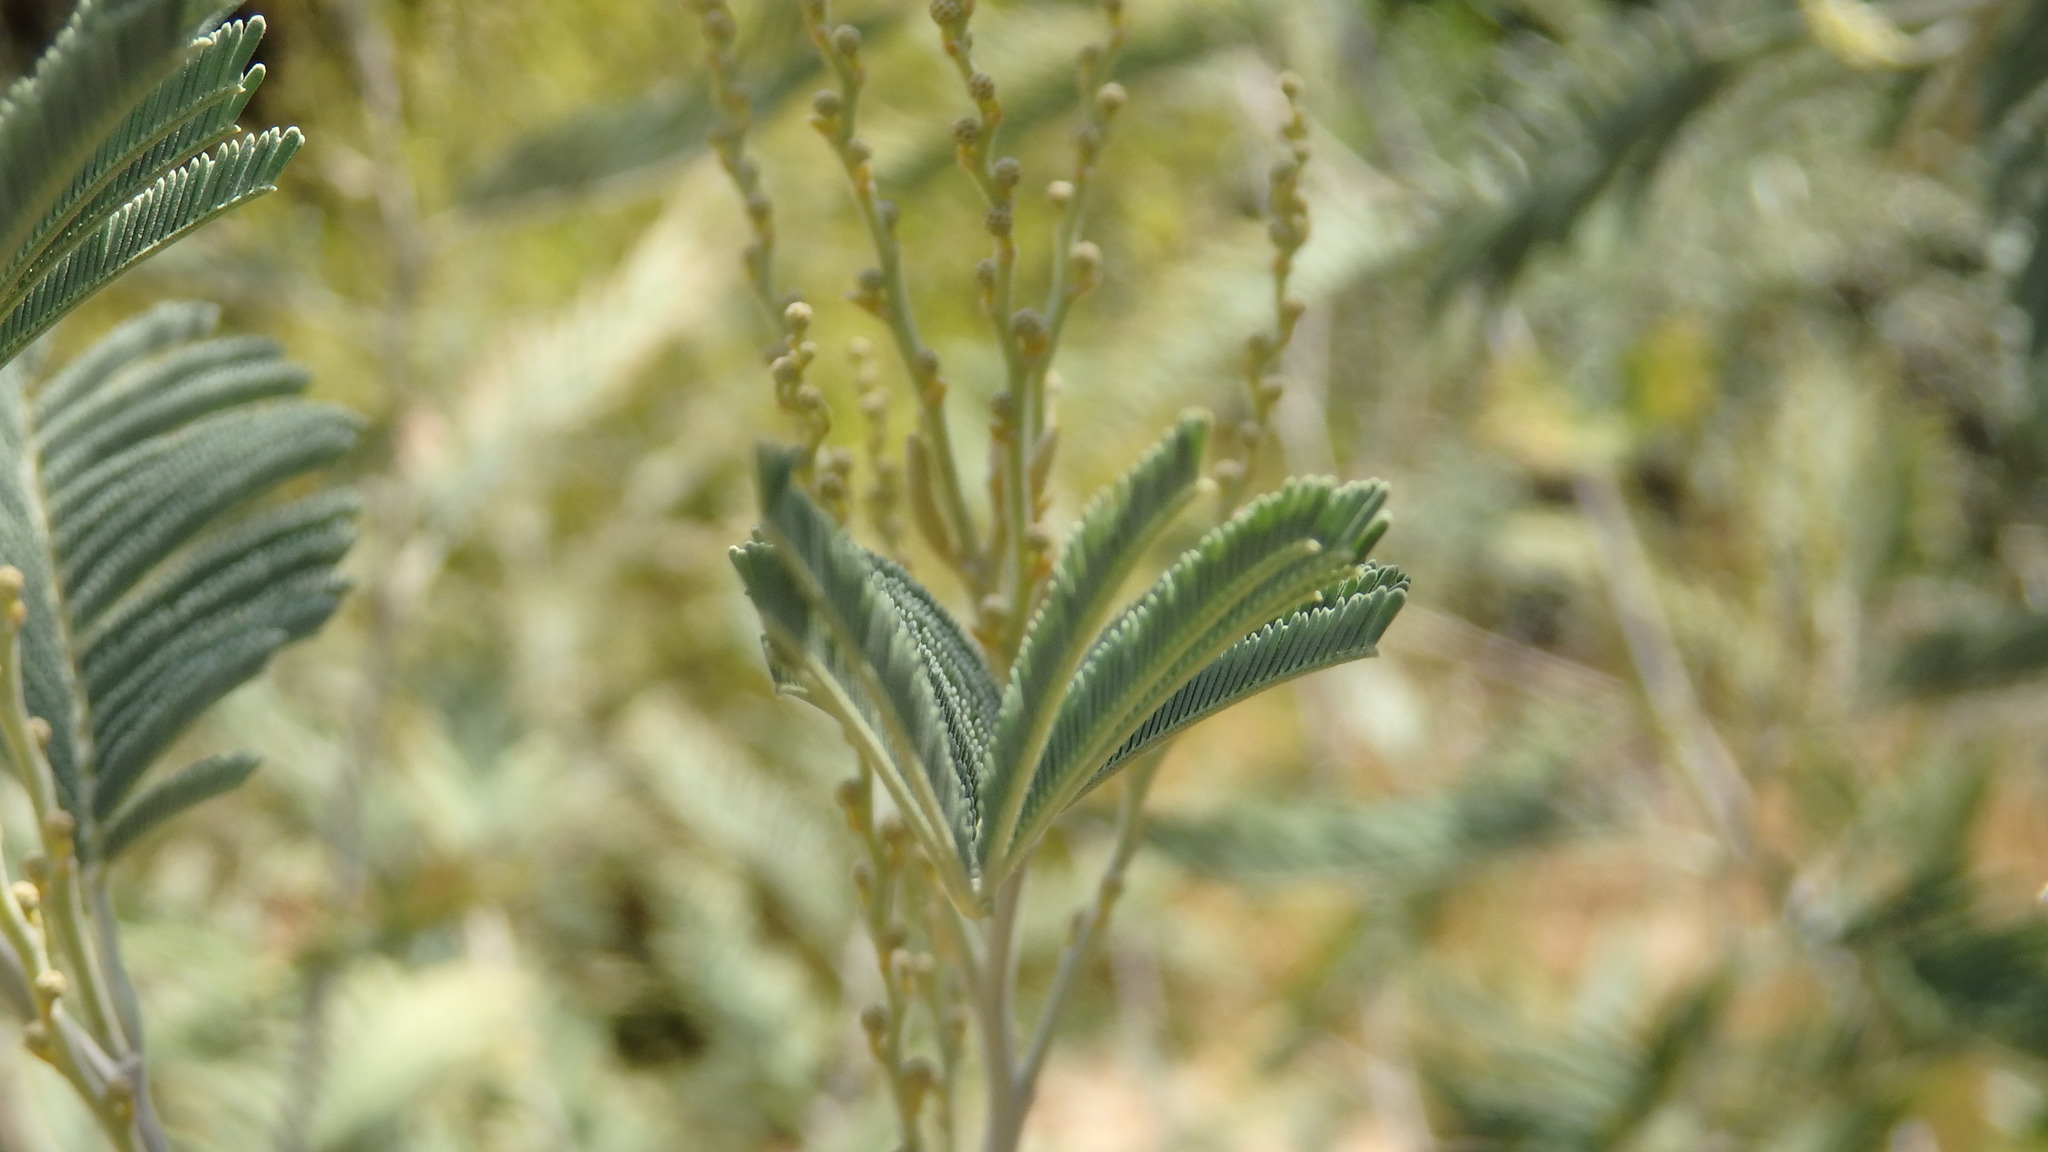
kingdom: Plantae
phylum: Tracheophyta
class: Magnoliopsida
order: Fabales
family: Fabaceae
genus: Acacia
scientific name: Acacia dealbata
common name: Silver wattle
